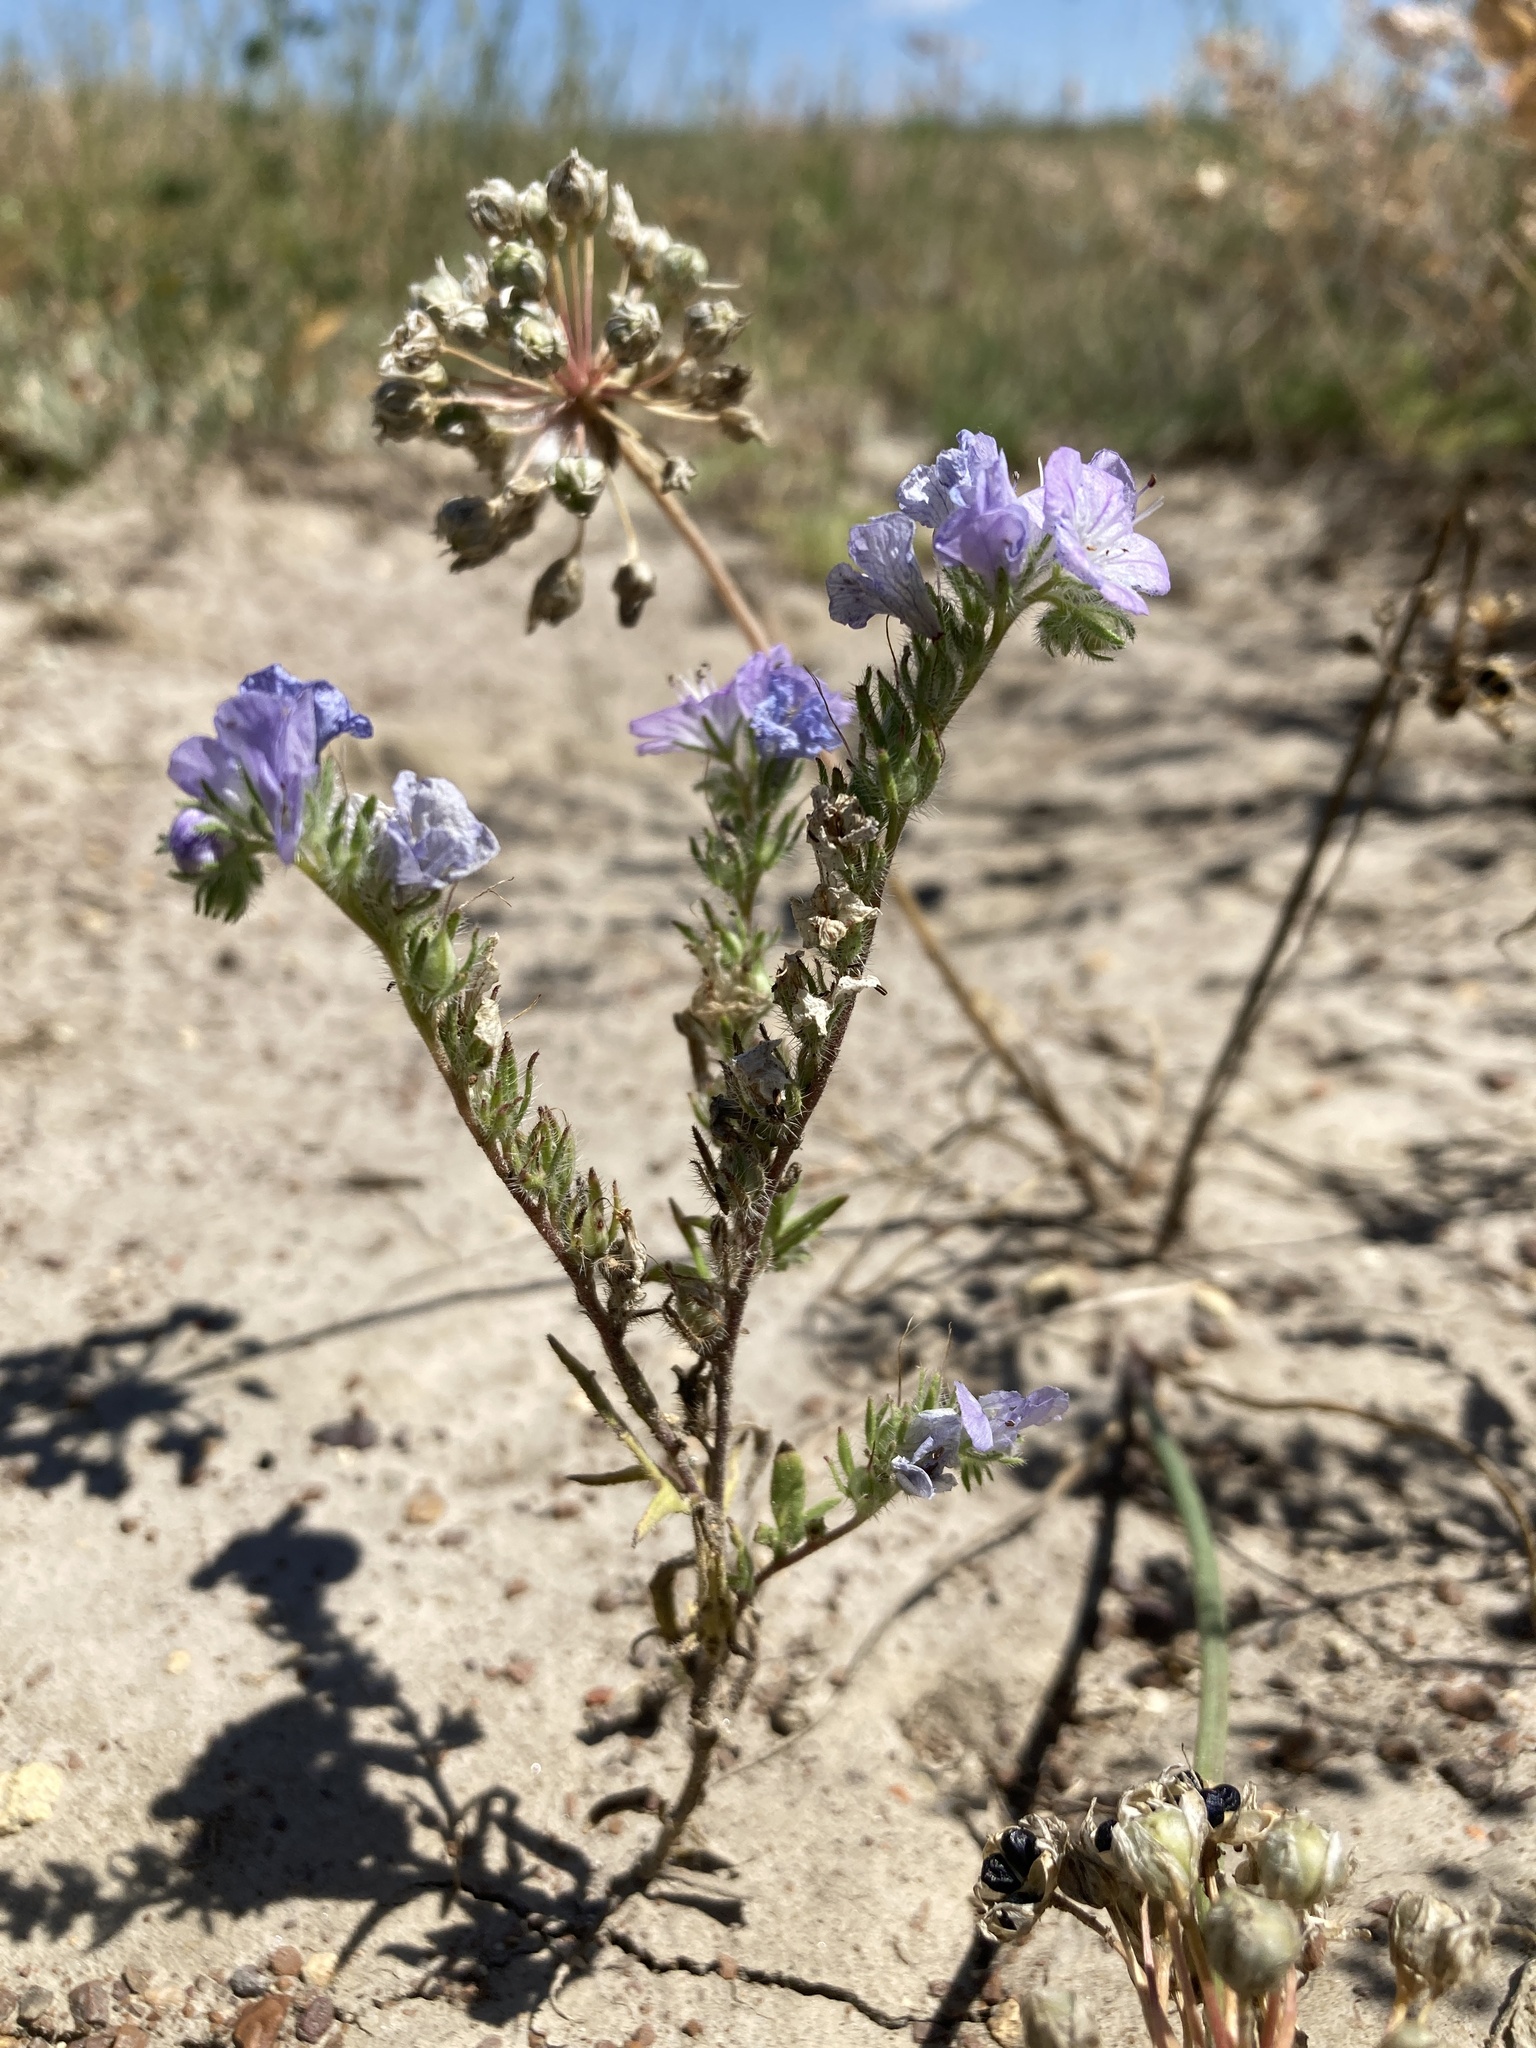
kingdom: Plantae
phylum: Tracheophyta
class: Magnoliopsida
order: Boraginales
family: Hydrophyllaceae
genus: Phacelia
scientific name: Phacelia linearis
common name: Linear-leaved phacelia
